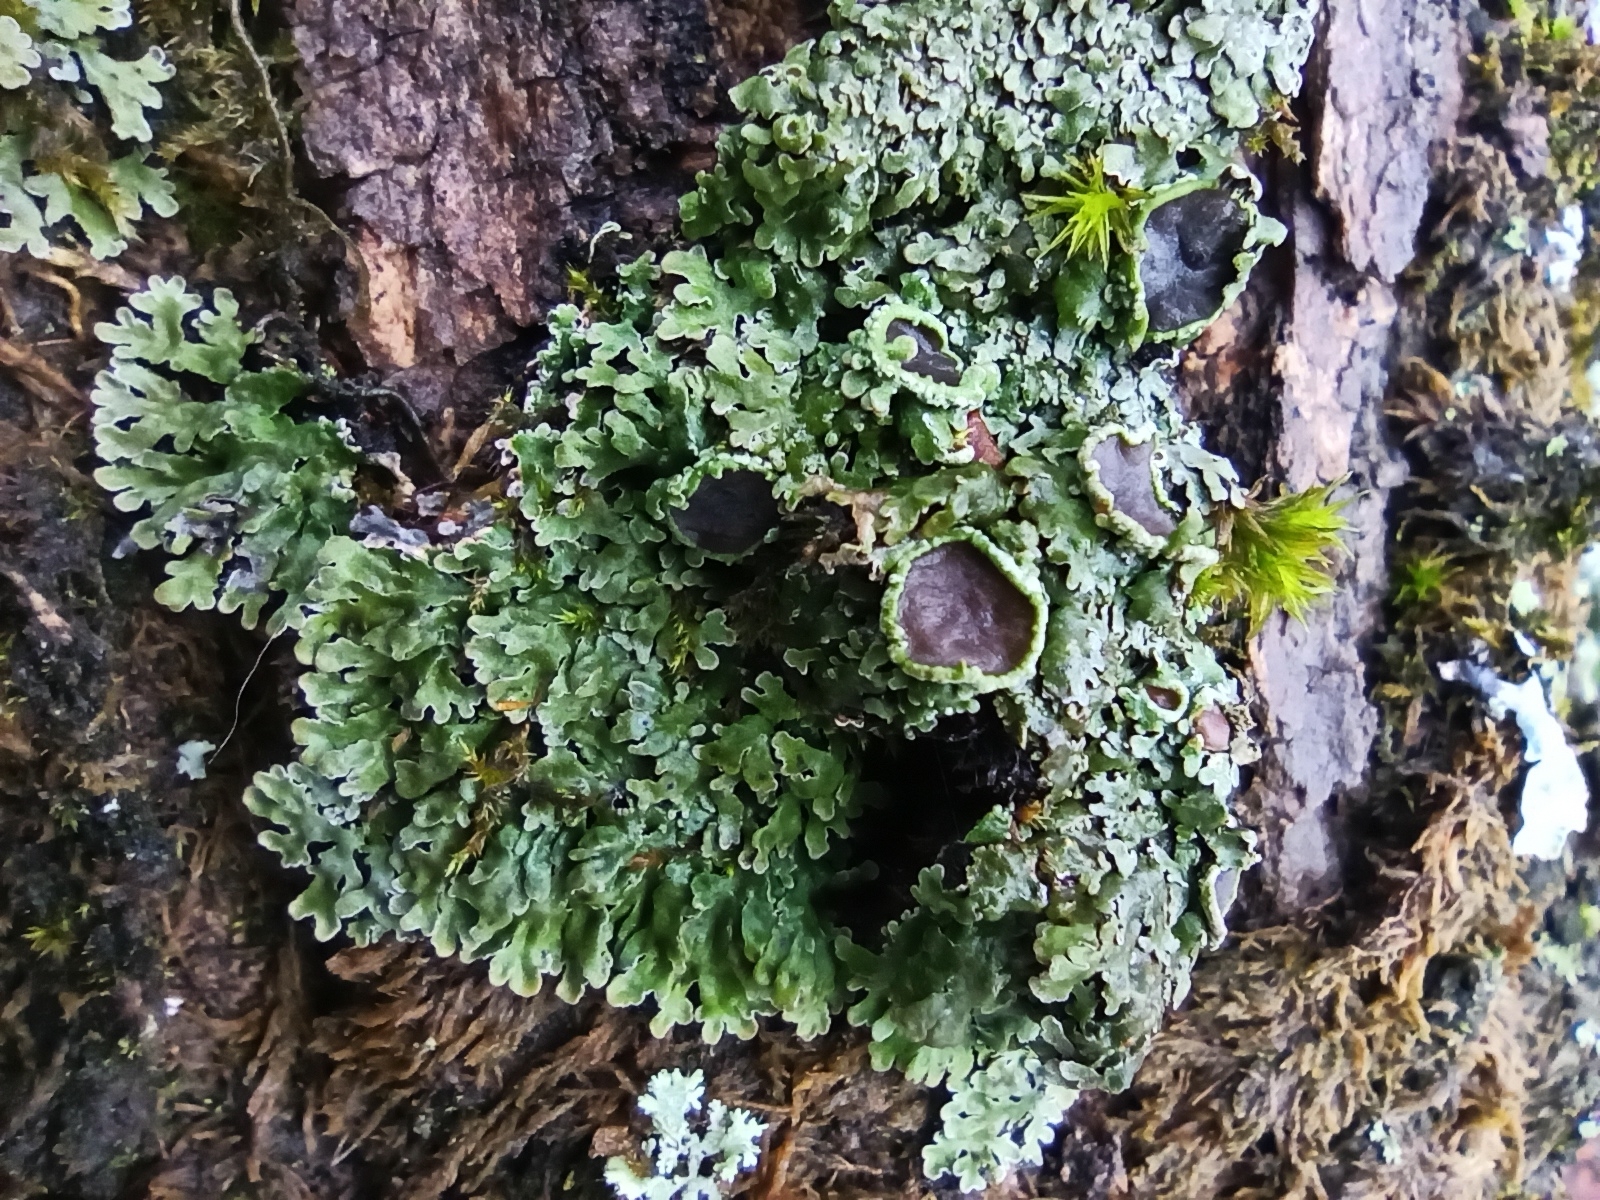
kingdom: Fungi
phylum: Ascomycota
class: Lecanoromycetes
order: Caliciales
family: Physciaceae
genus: Physconia
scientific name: Physconia distorta
